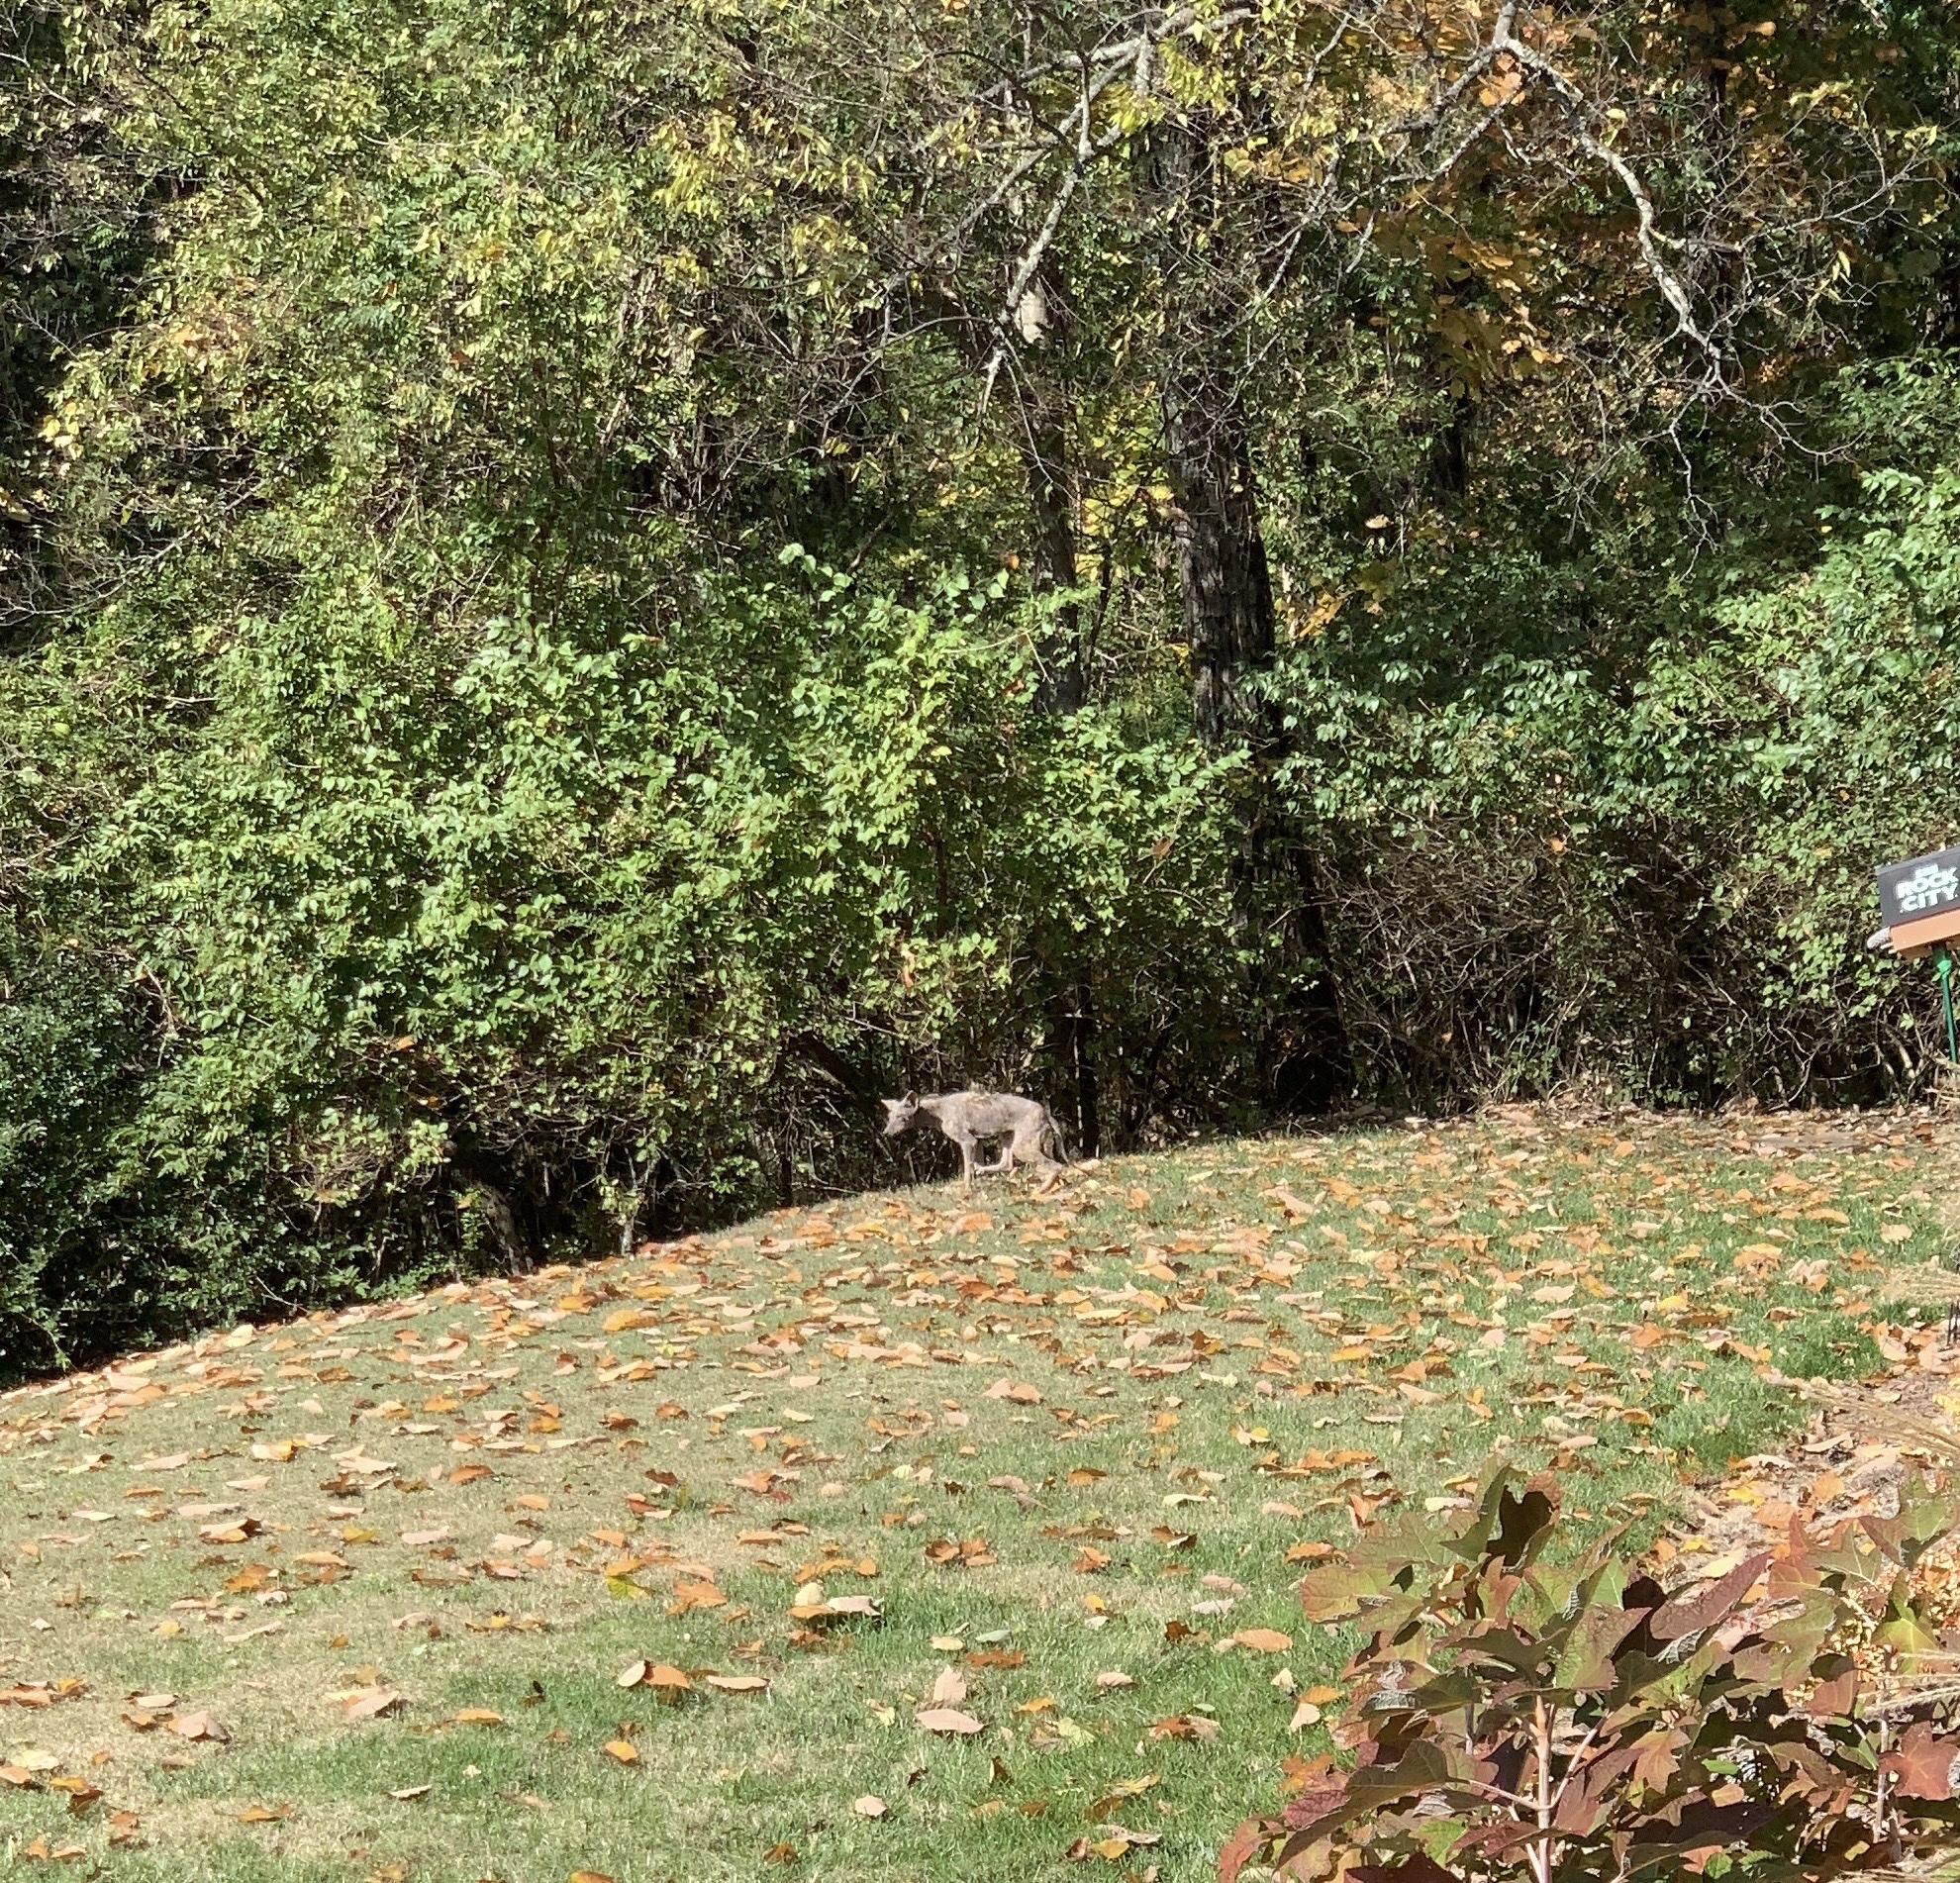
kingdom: Animalia
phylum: Chordata
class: Mammalia
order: Carnivora
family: Canidae
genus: Canis
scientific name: Canis latrans
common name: Coyote
